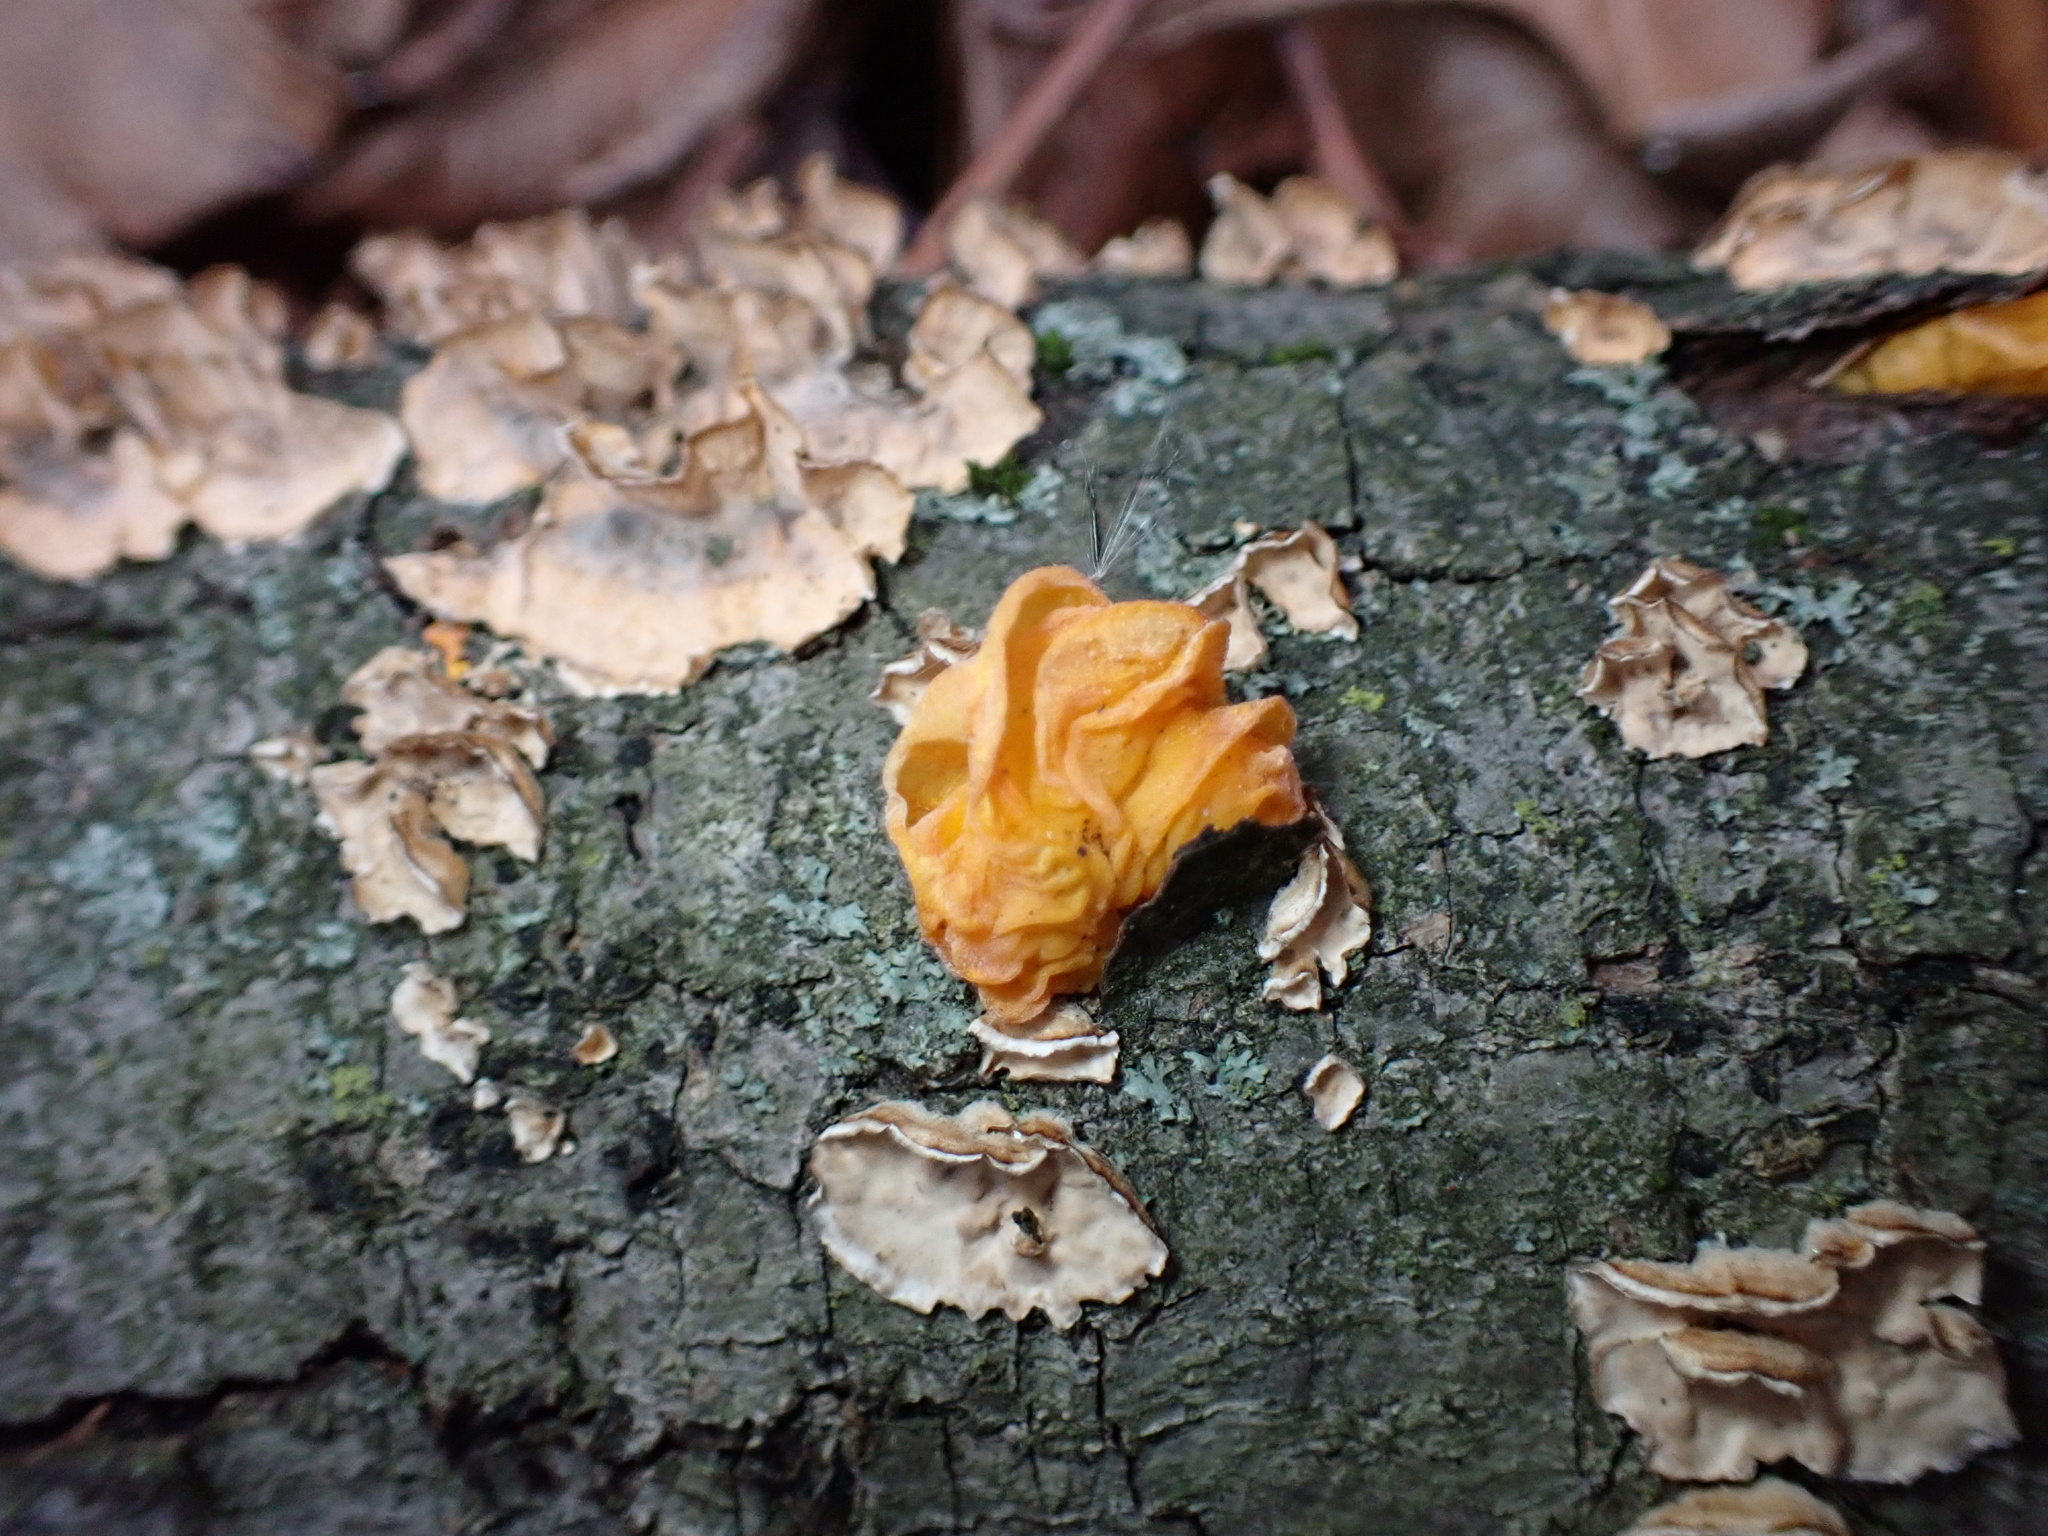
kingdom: Fungi
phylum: Basidiomycota
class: Tremellomycetes
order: Tremellales
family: Naemateliaceae
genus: Naematelia
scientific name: Naematelia aurantia
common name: Golden ear
